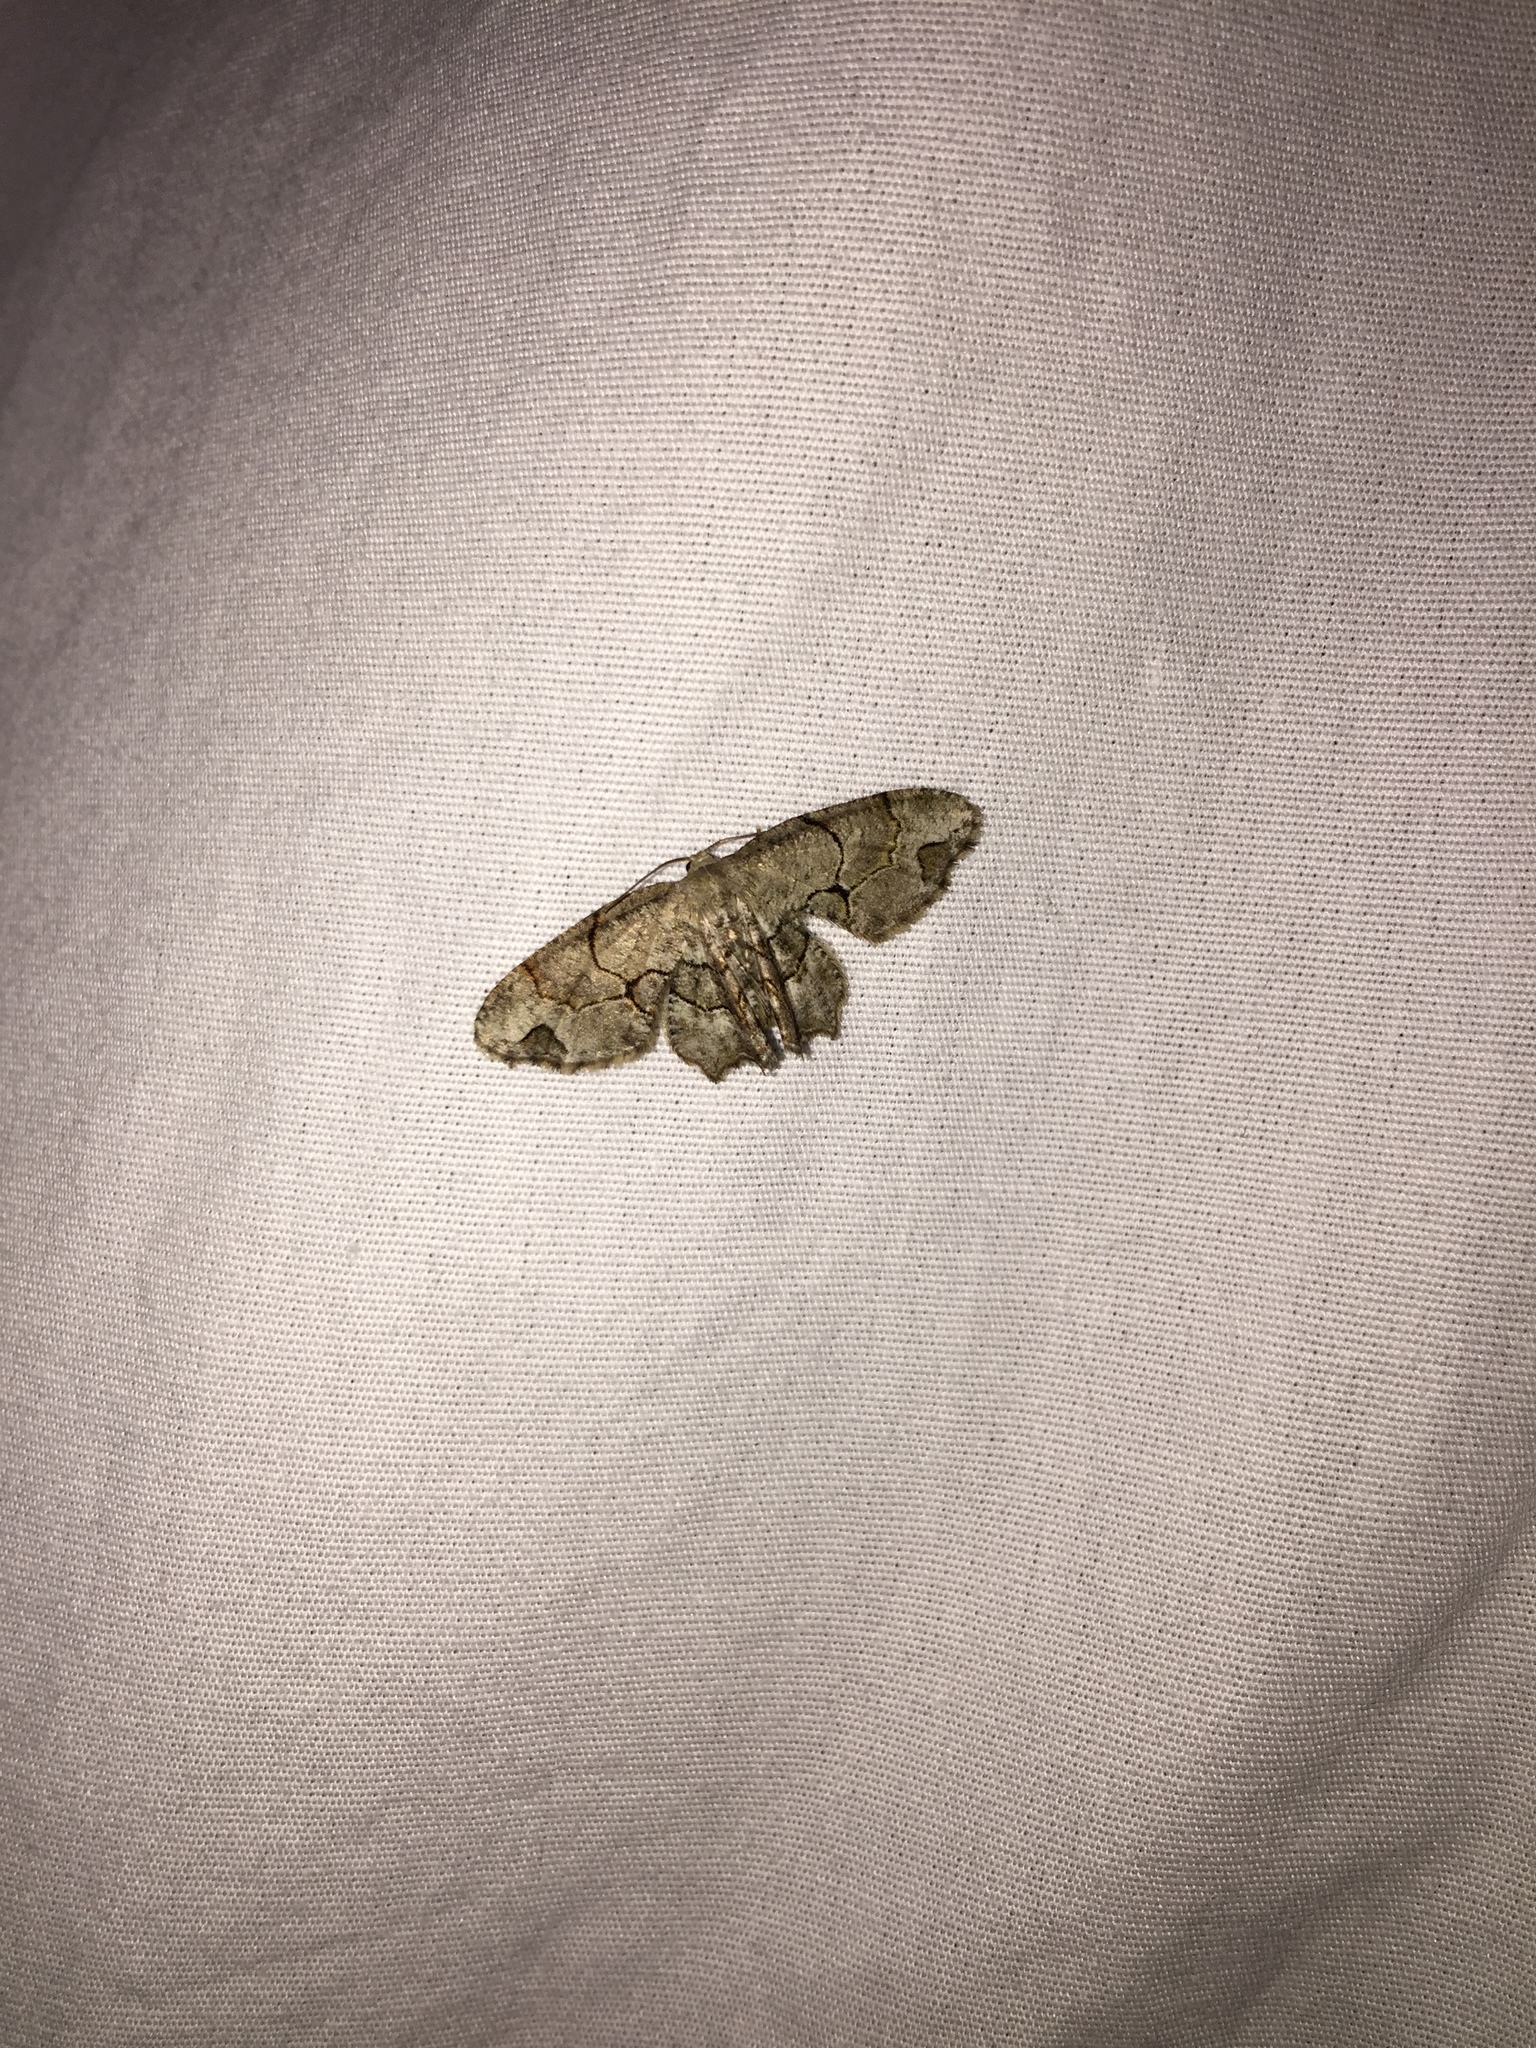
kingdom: Animalia
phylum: Arthropoda
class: Insecta
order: Lepidoptera
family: Uraniidae
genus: Epiplema
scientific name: Epiplema Callizzia amorata
